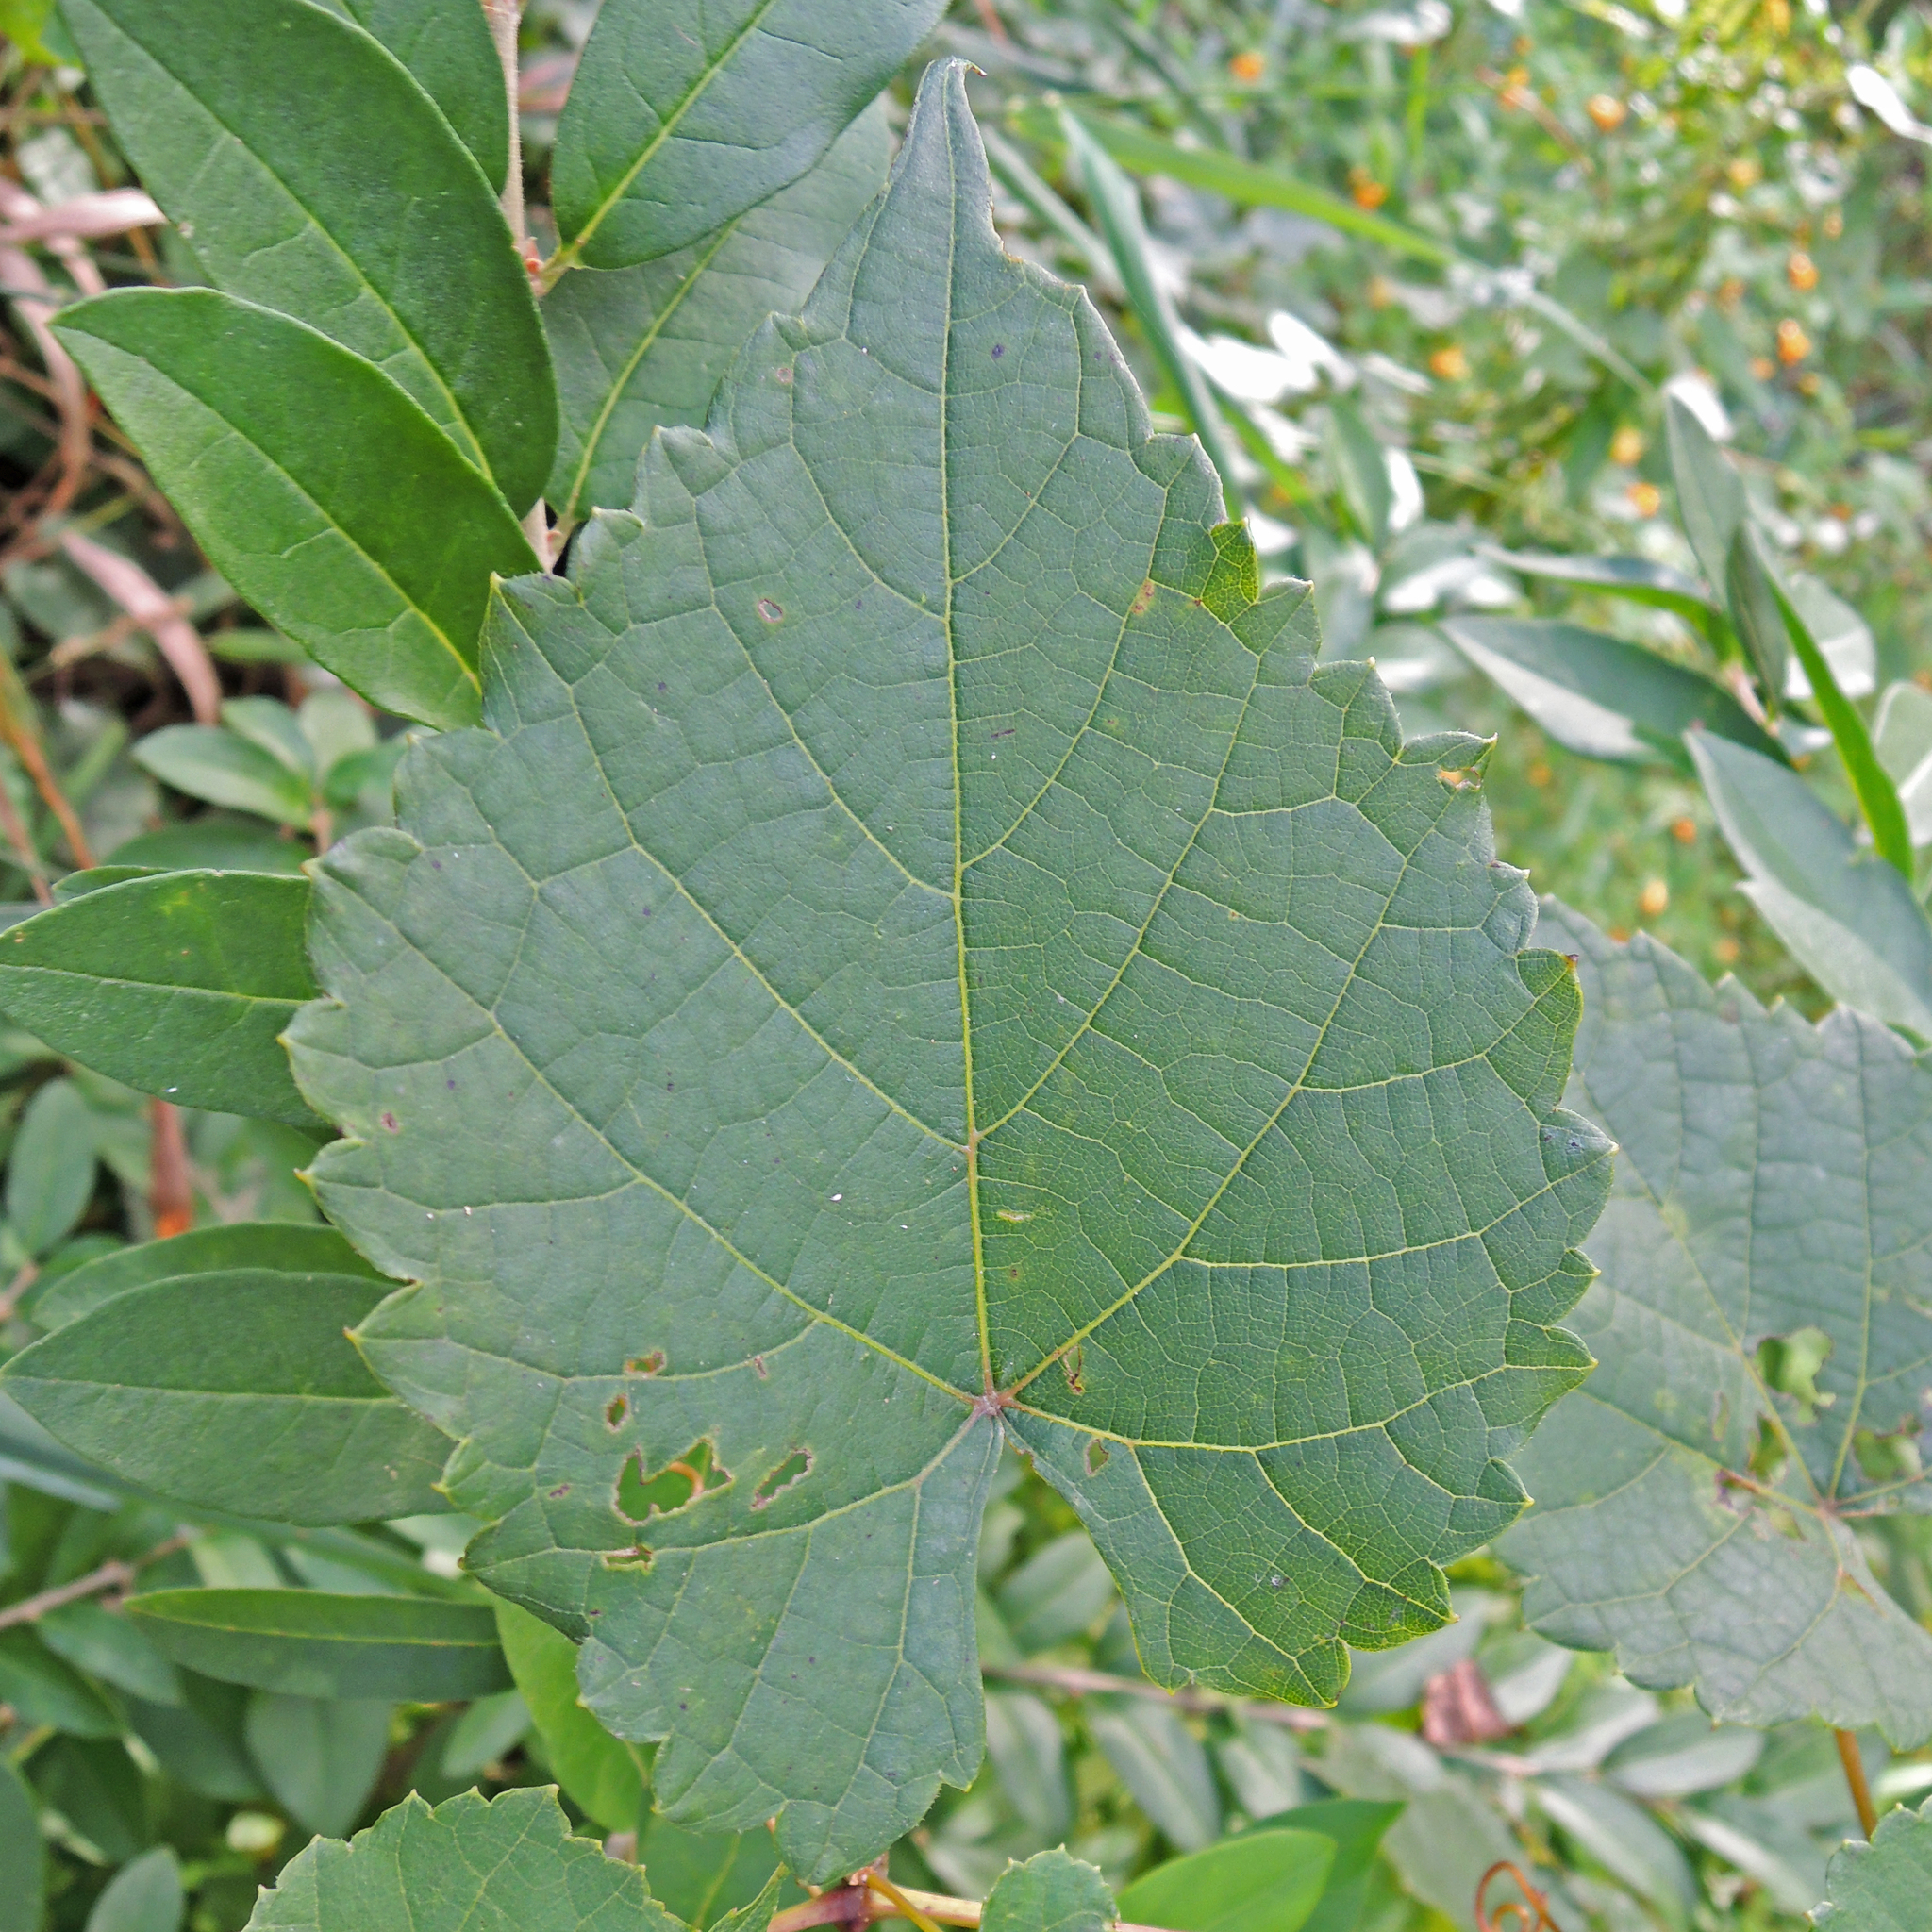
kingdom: Plantae
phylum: Tracheophyta
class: Magnoliopsida
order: Vitales
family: Vitaceae
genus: Vitis
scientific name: Vitis riparia
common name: Frost grape
